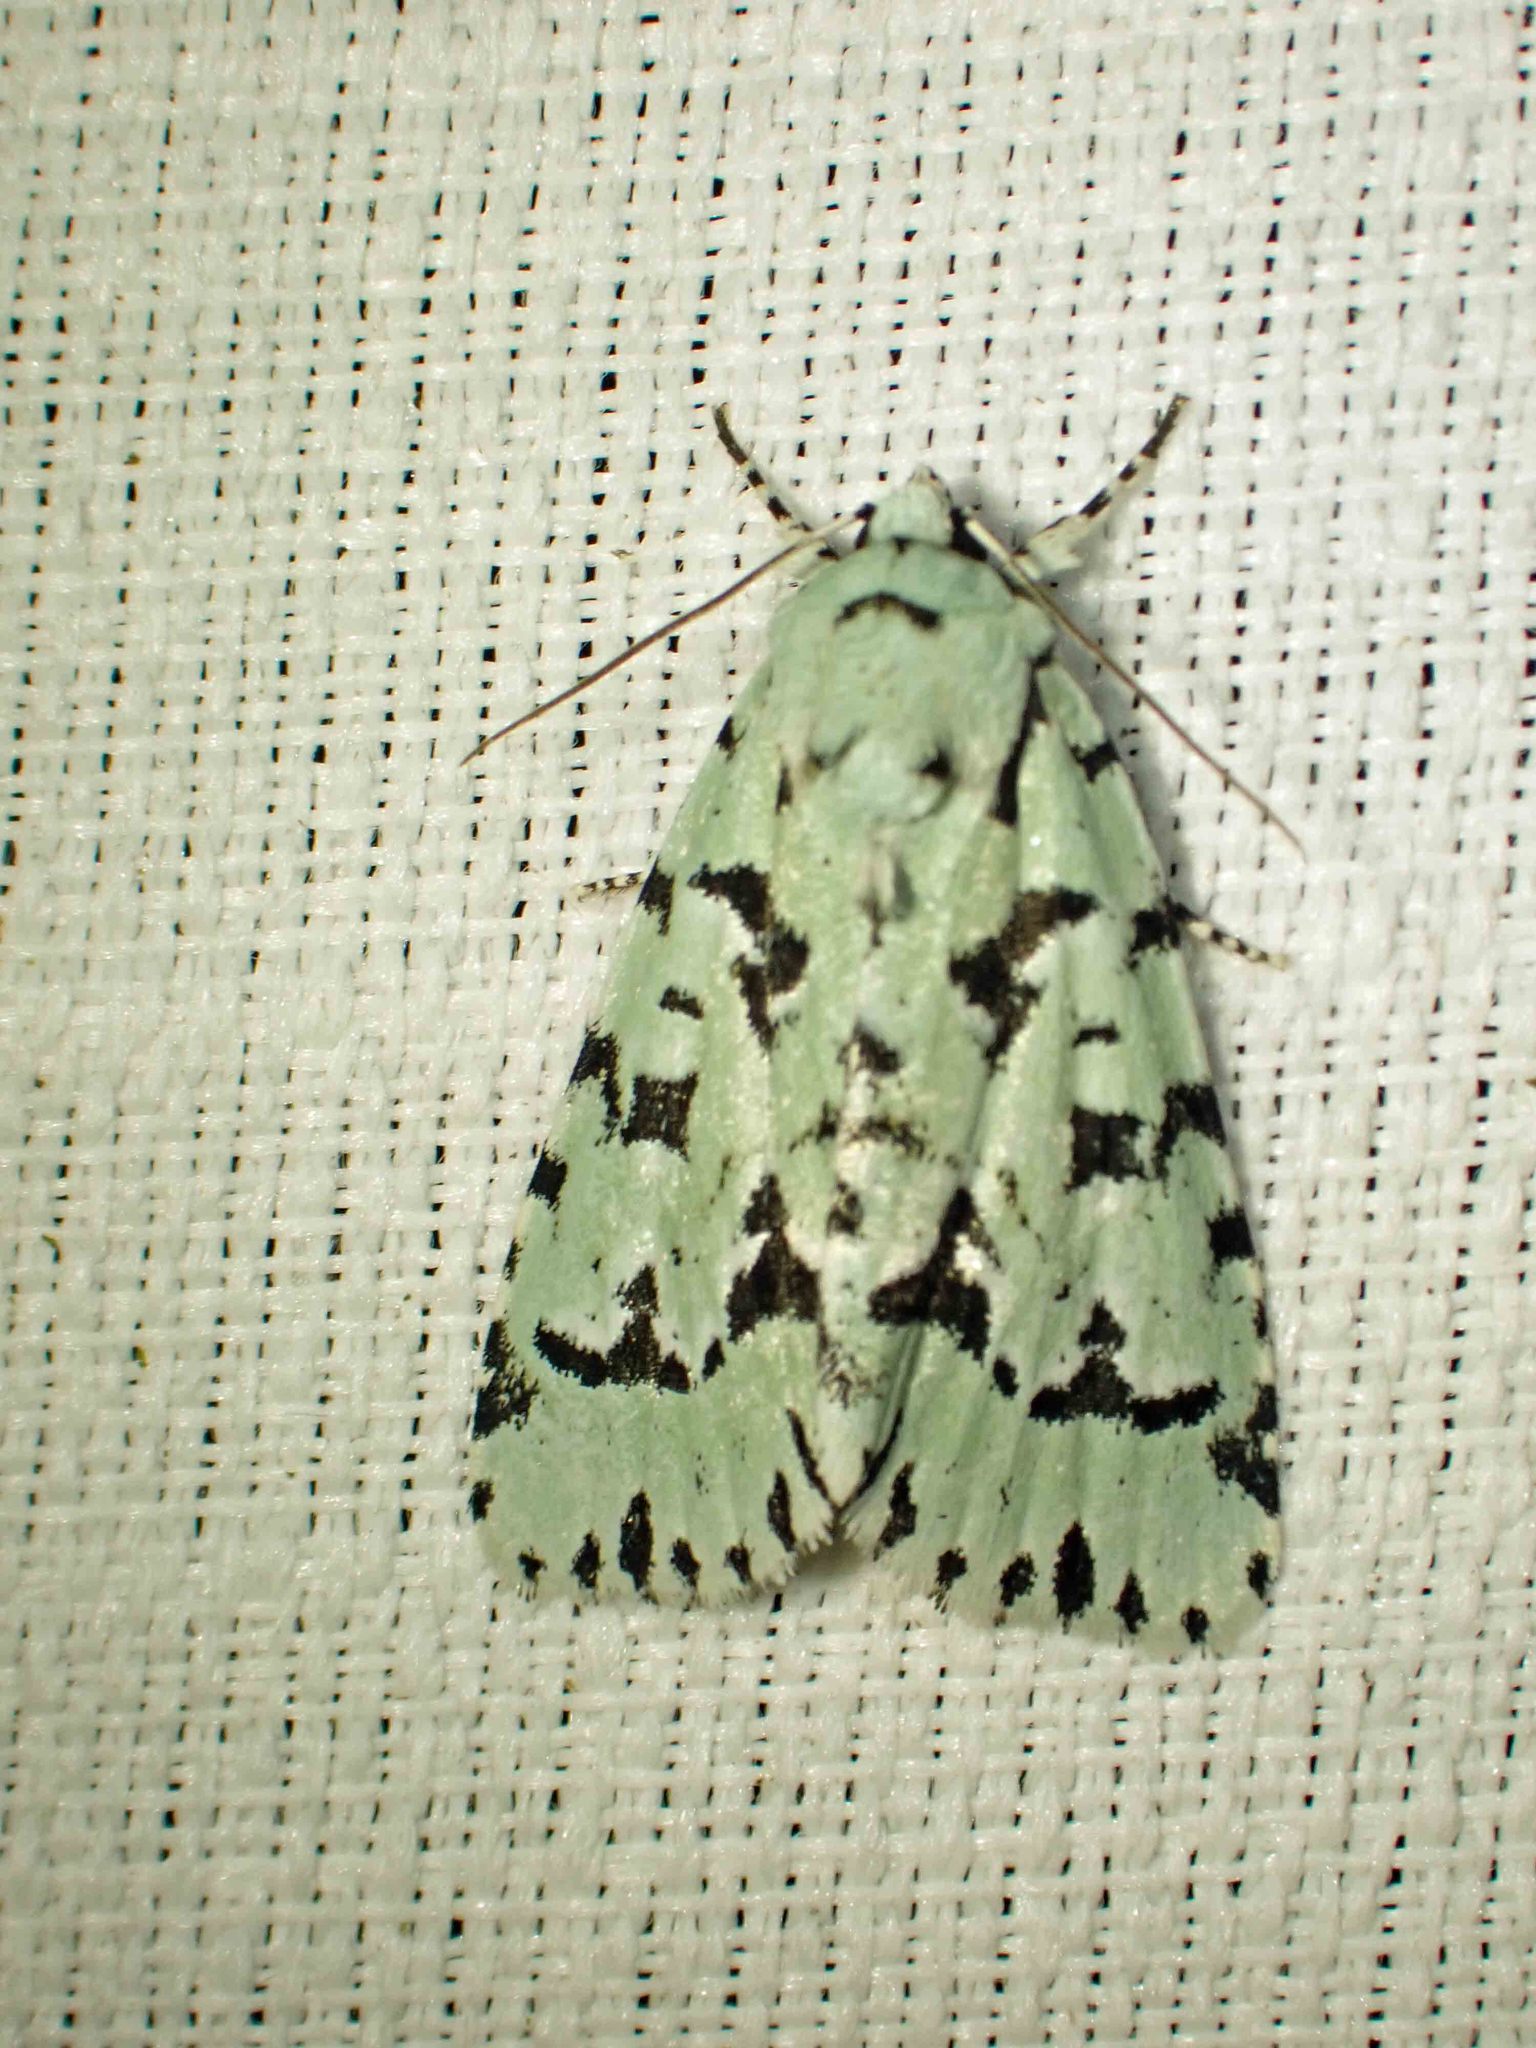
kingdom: Animalia
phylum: Arthropoda
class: Insecta
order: Lepidoptera
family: Noctuidae
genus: Acronicta
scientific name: Acronicta fallax
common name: Green marvel
